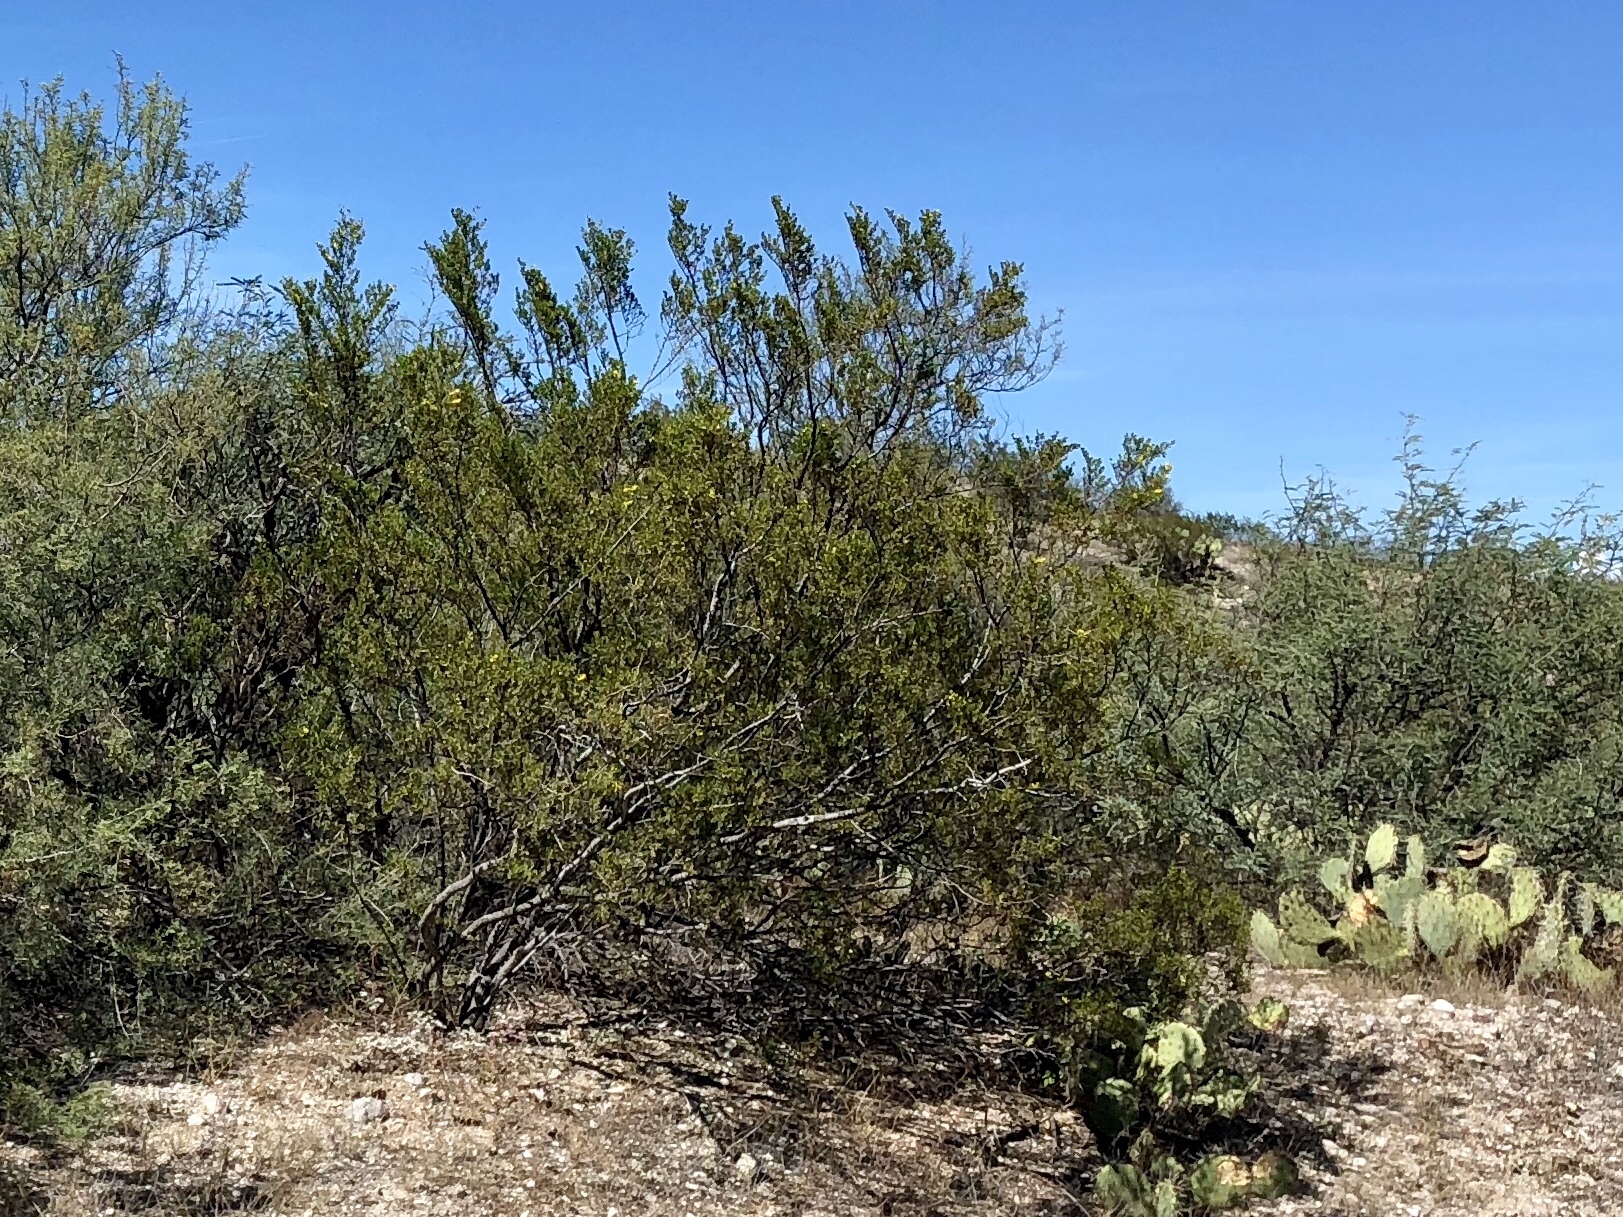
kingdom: Plantae
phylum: Tracheophyta
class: Magnoliopsida
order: Zygophyllales
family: Zygophyllaceae
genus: Larrea
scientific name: Larrea tridentata
